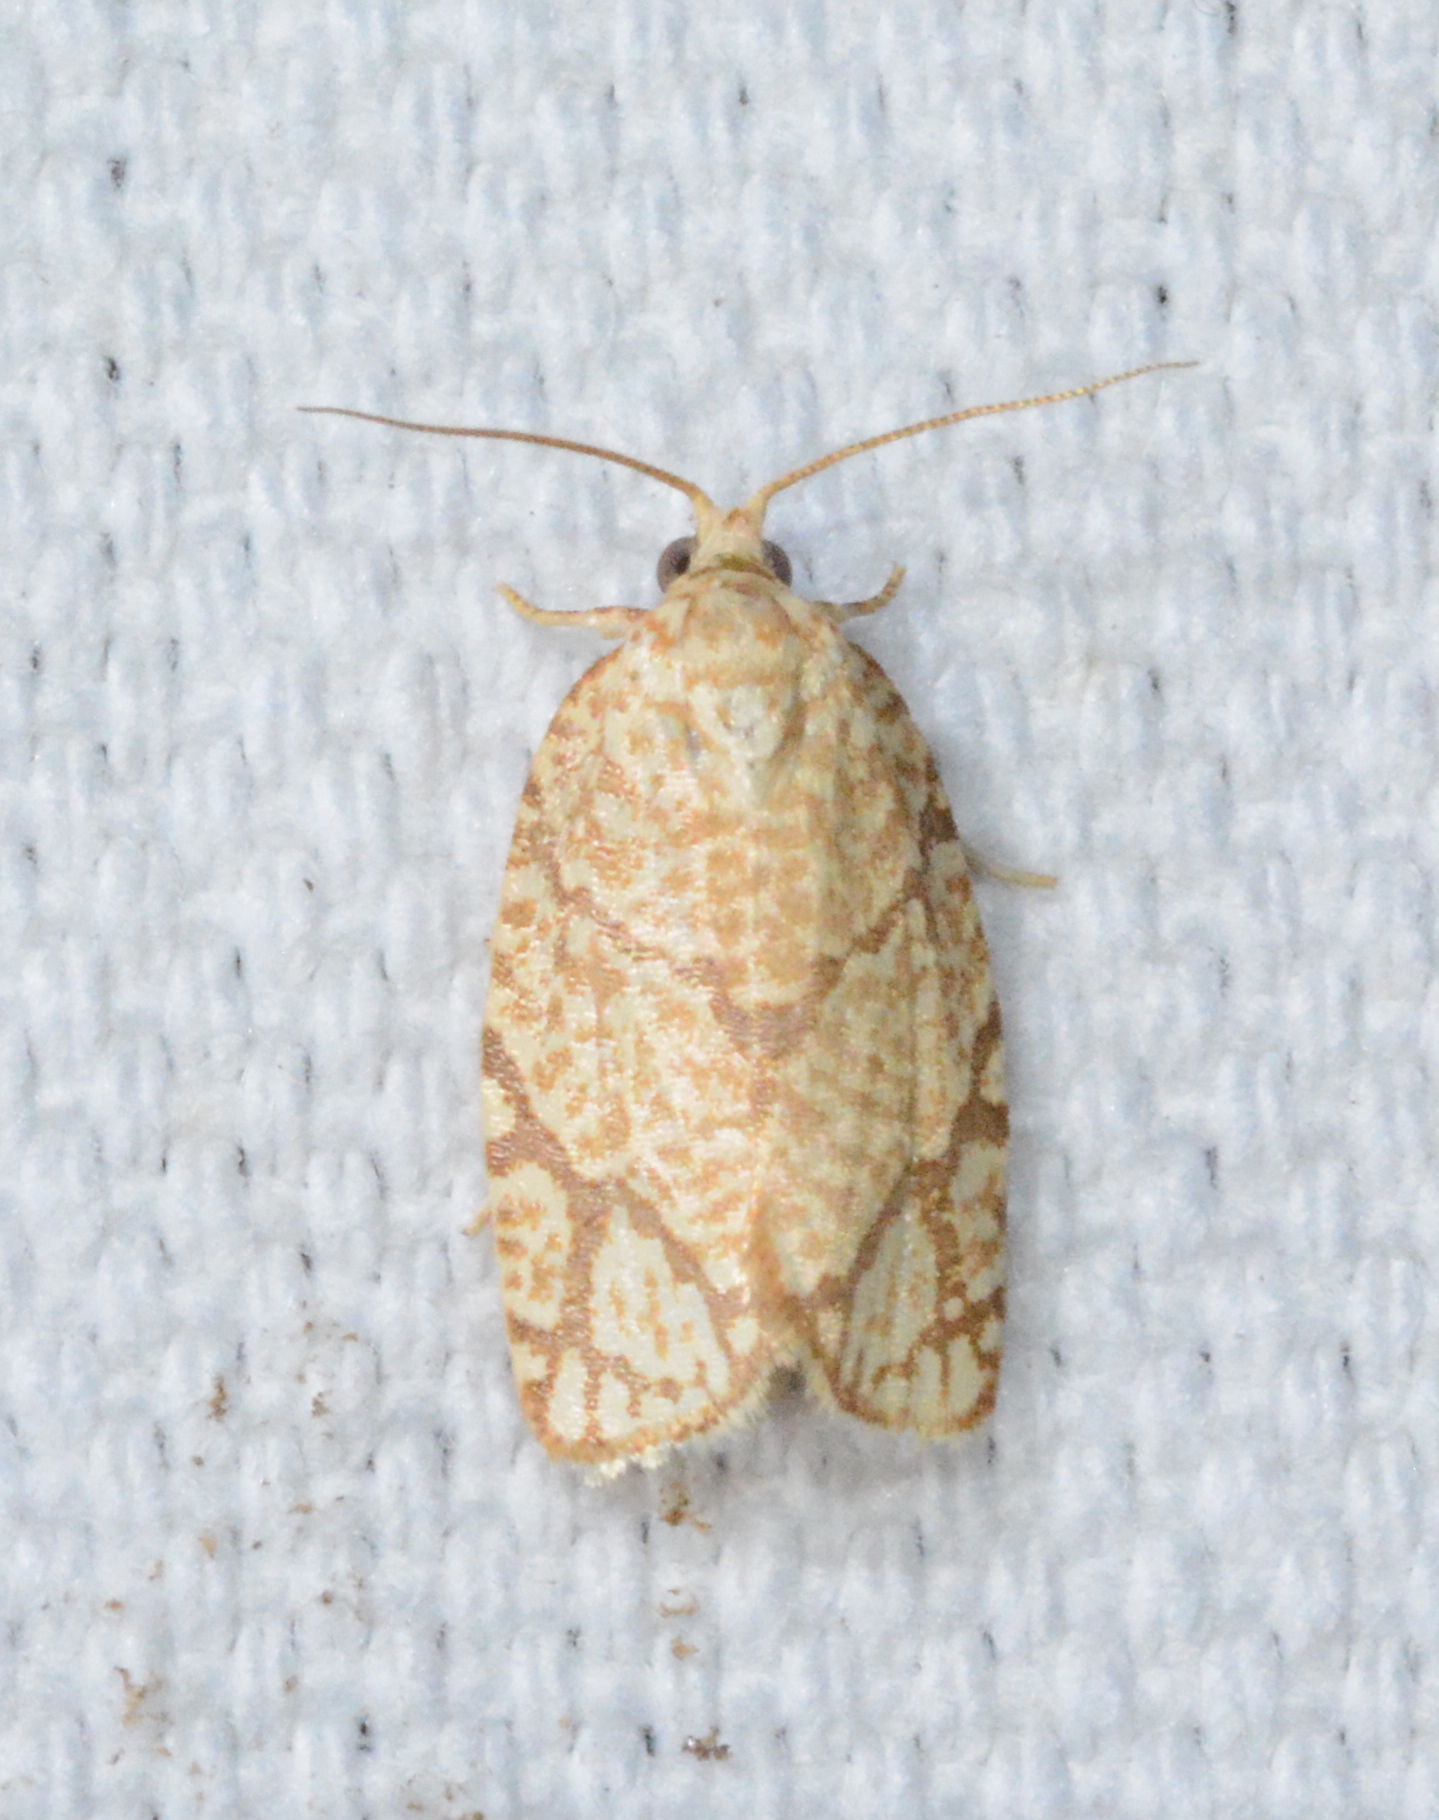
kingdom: Animalia
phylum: Arthropoda
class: Insecta
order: Lepidoptera
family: Tortricidae
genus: Argyrotaenia
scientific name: Argyrotaenia quercifoliana
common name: Yellow-winged oak leafroller moth
